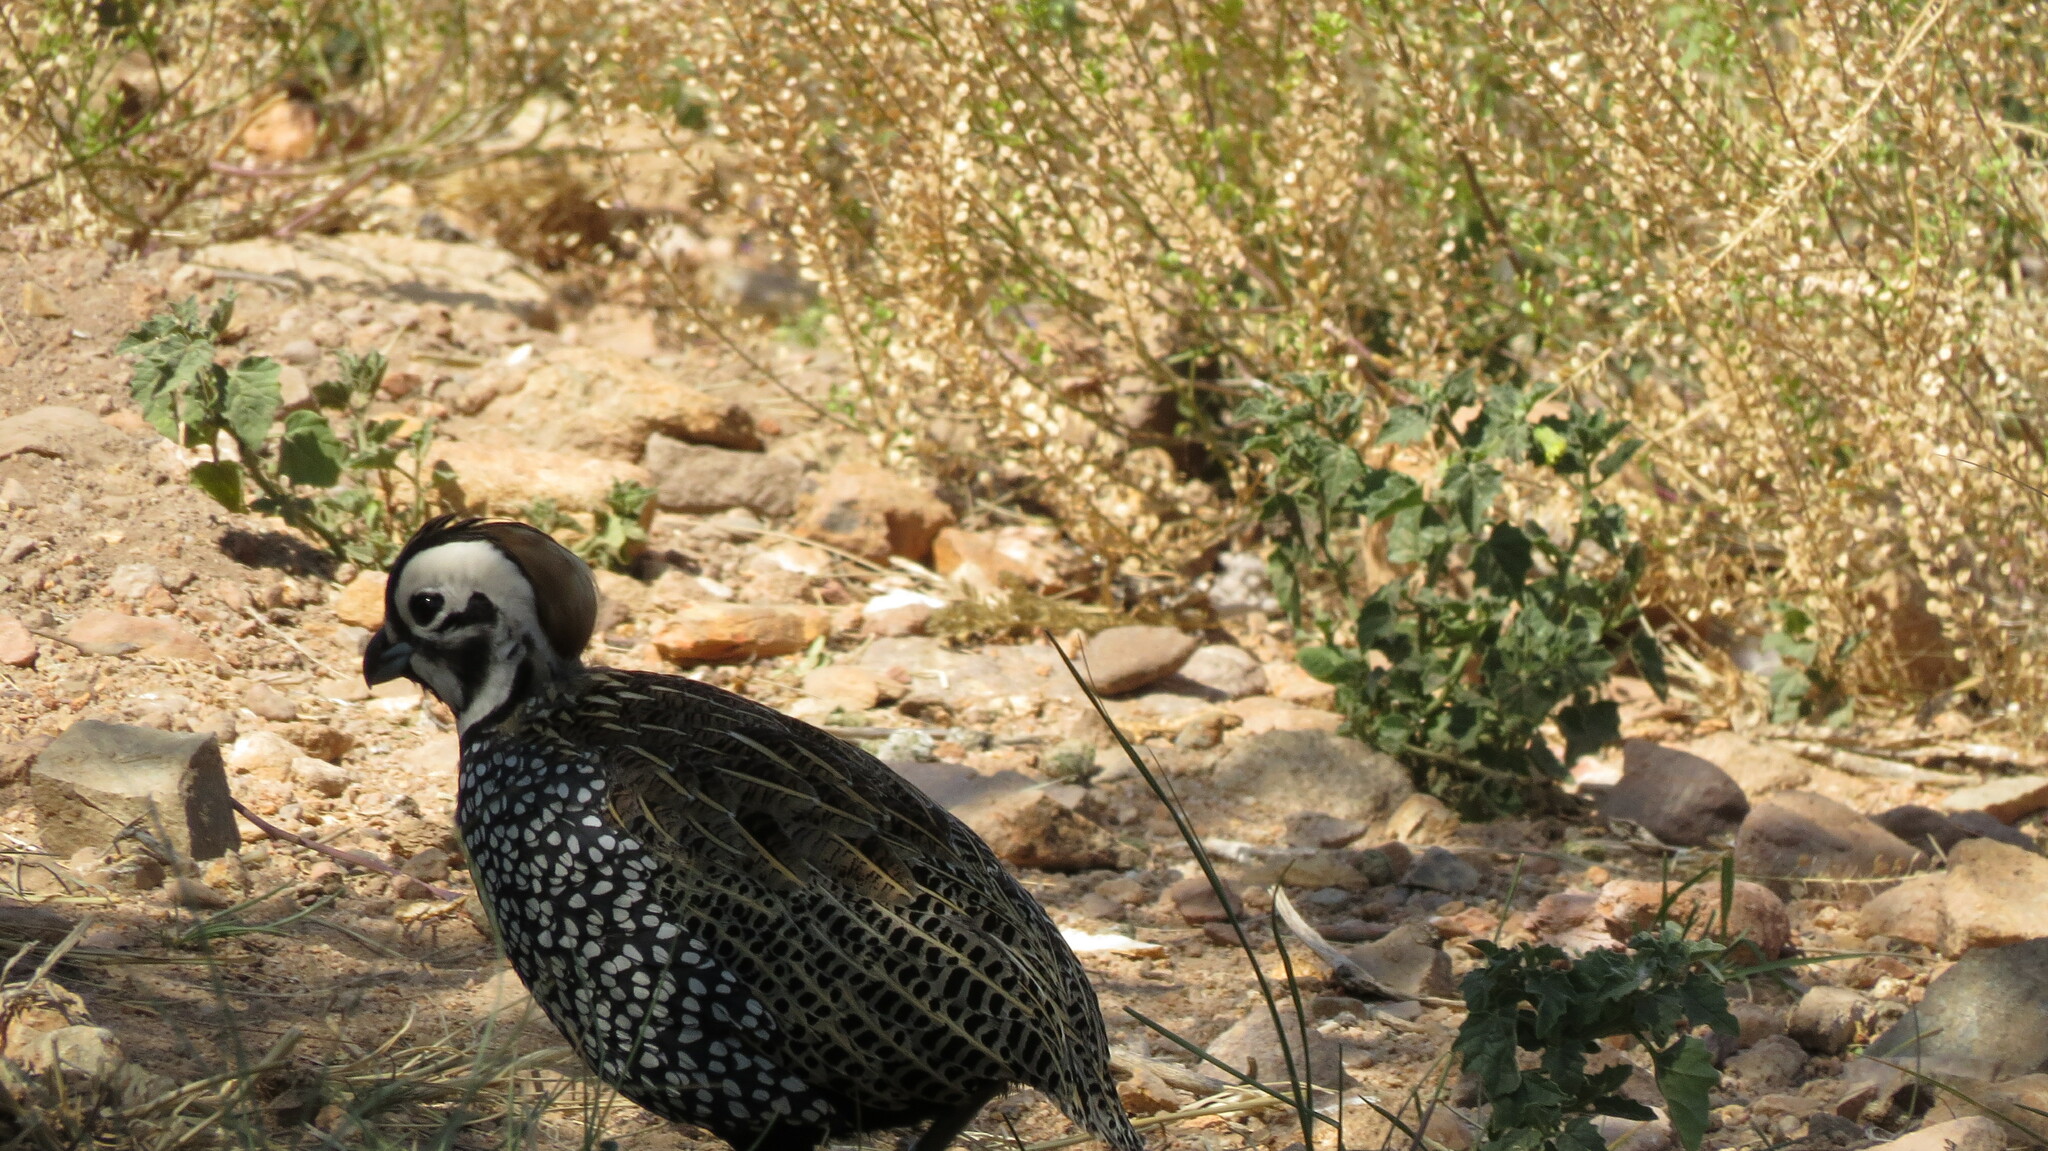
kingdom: Animalia
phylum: Chordata
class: Aves
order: Galliformes
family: Odontophoridae
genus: Cyrtonyx
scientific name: Cyrtonyx montezumae
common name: Montezuma quail
